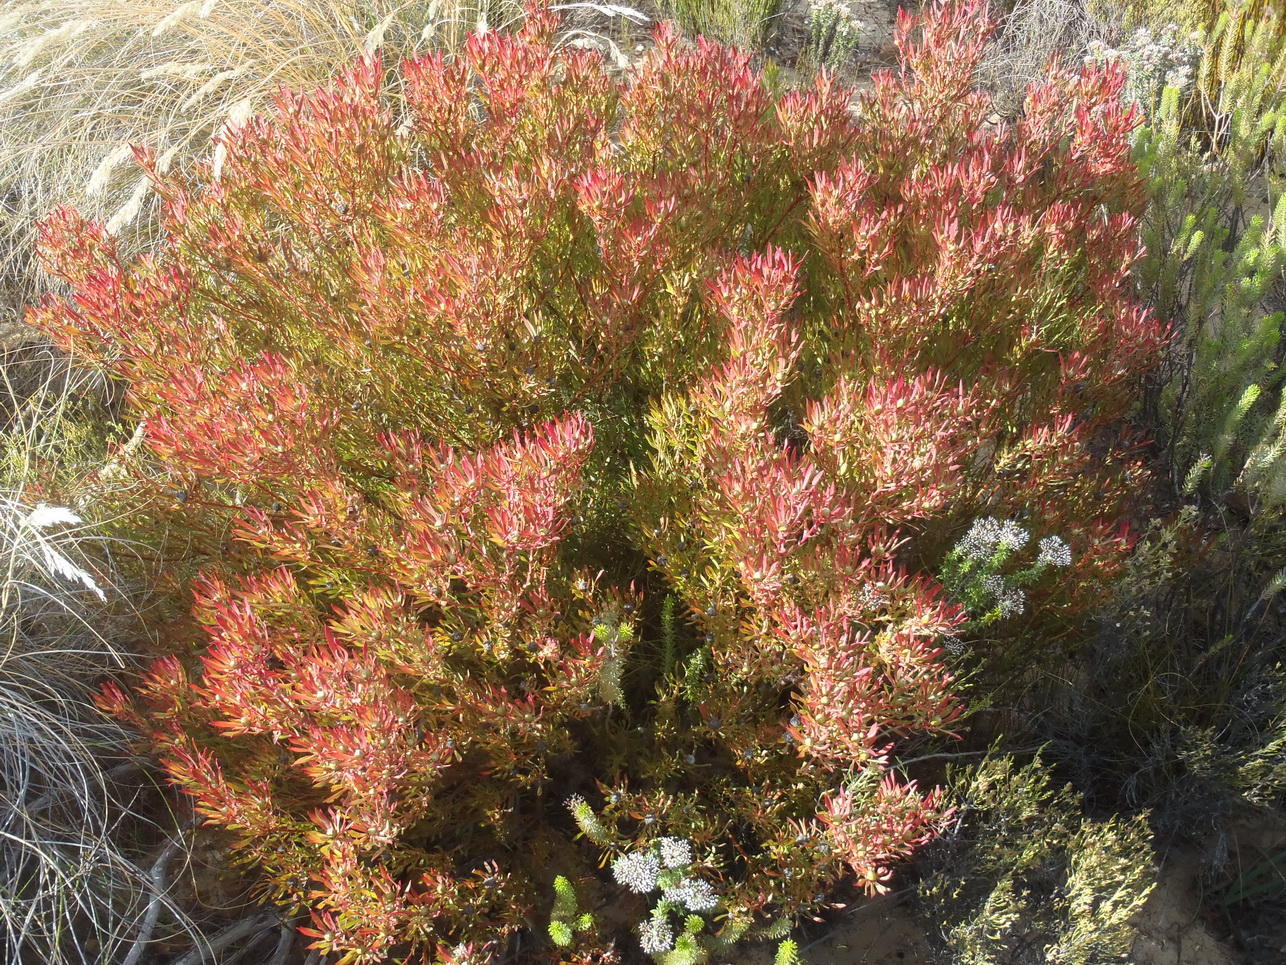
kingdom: Plantae
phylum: Tracheophyta
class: Magnoliopsida
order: Proteales
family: Proteaceae
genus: Leucadendron
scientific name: Leucadendron salignum
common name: Common sunshine conebush
